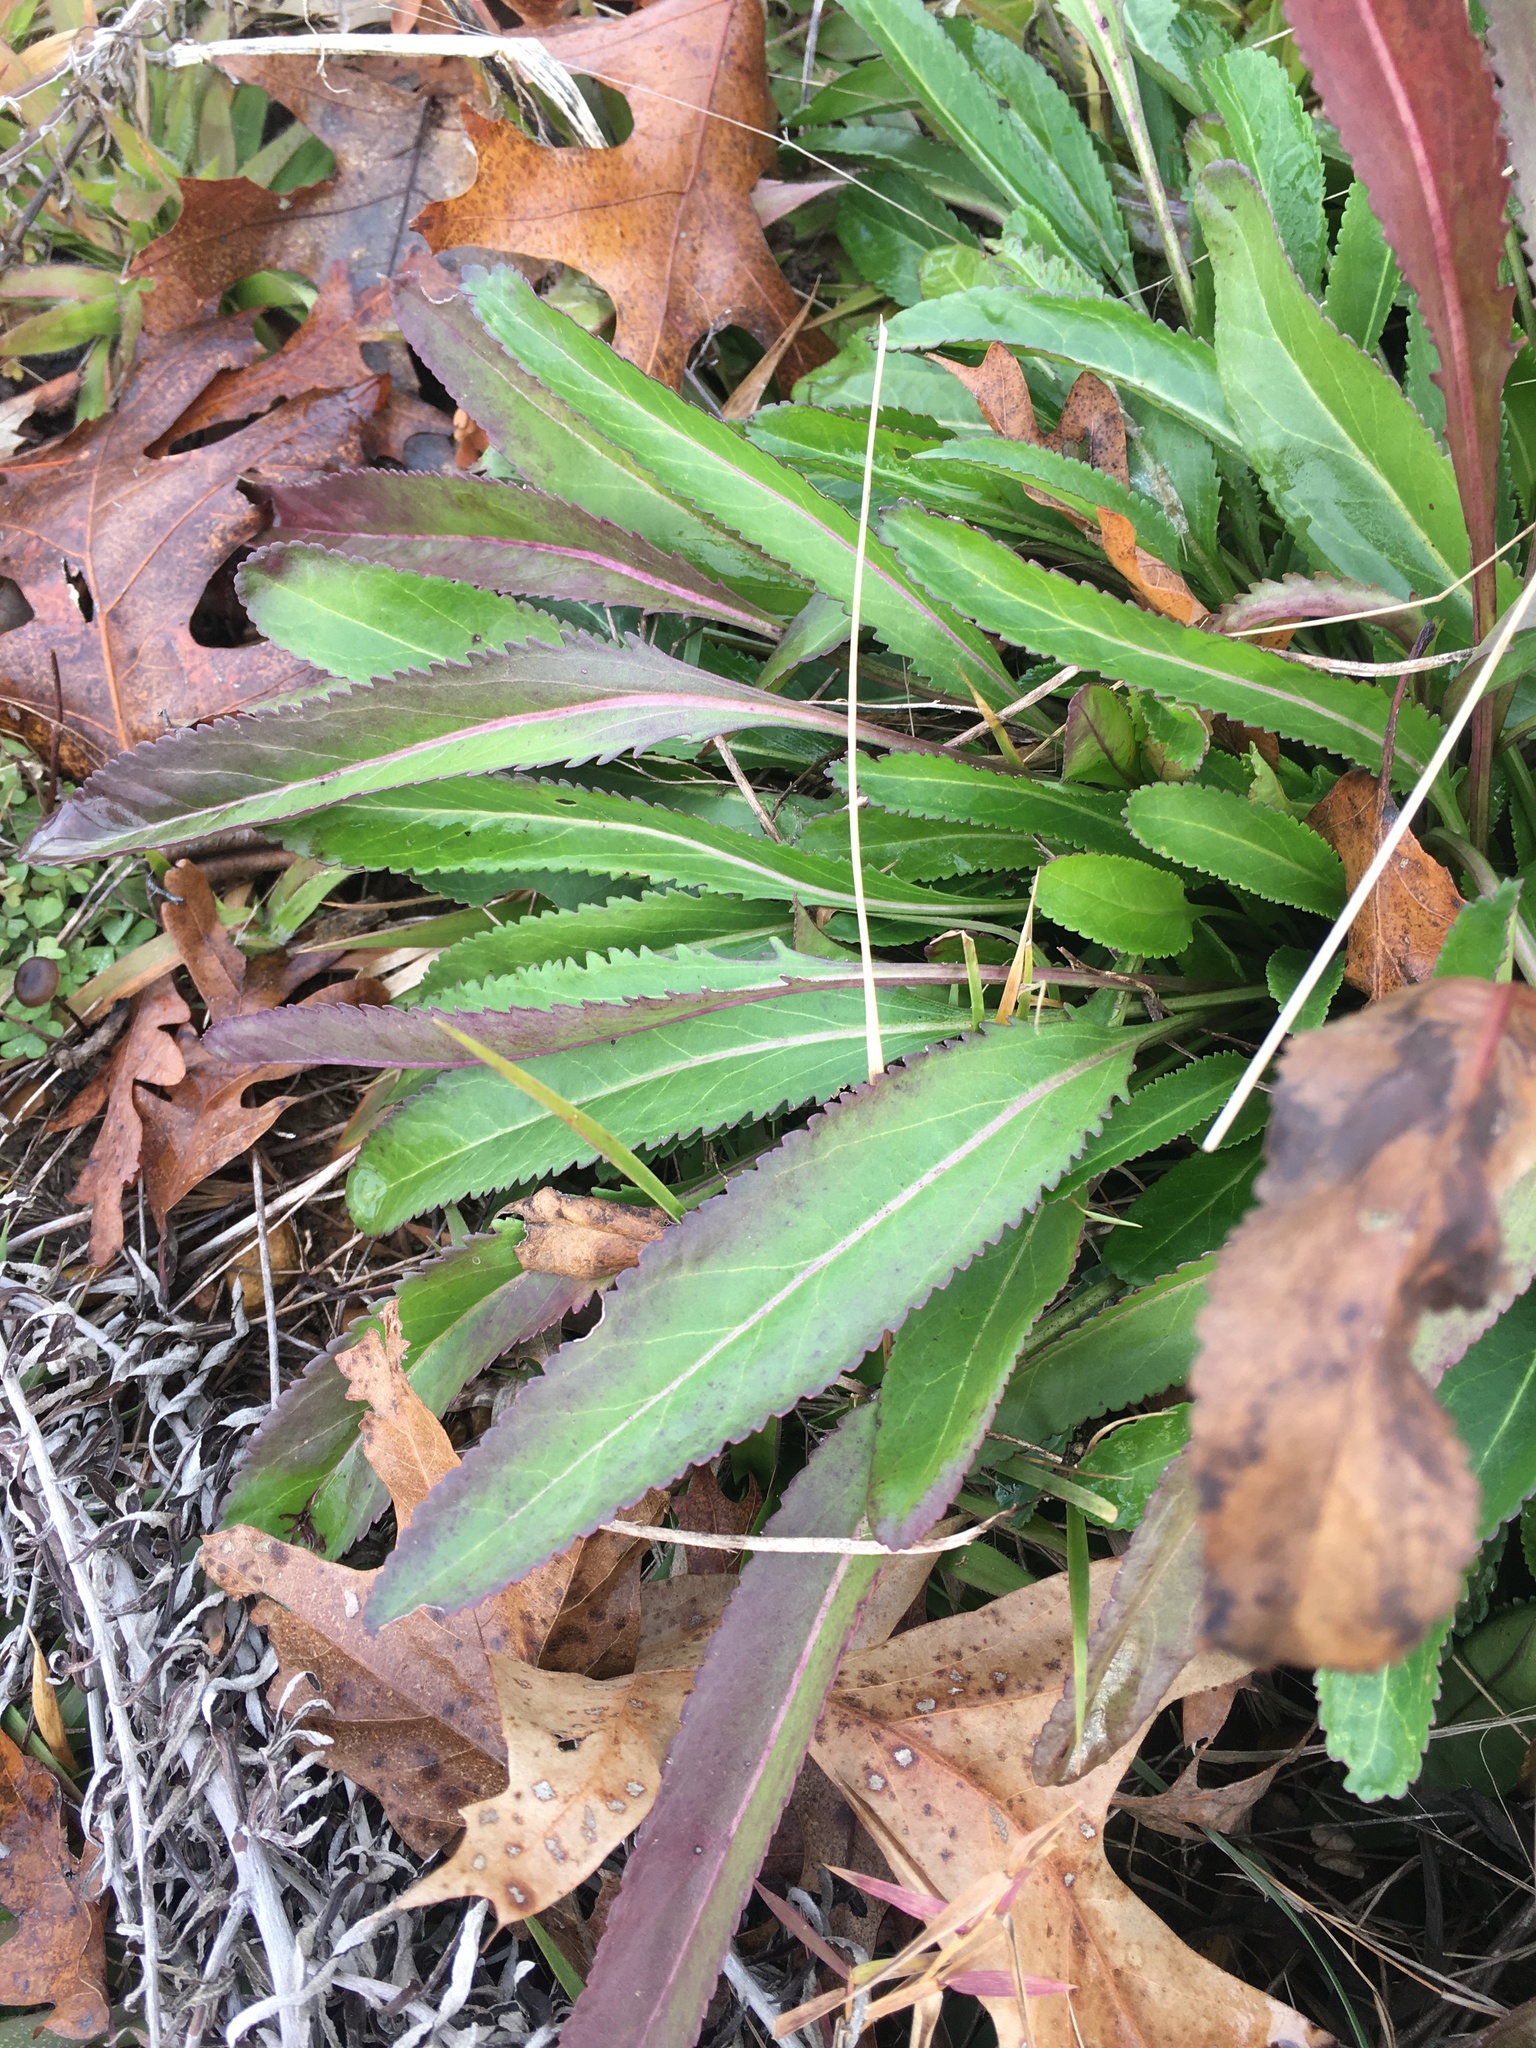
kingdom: Plantae
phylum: Tracheophyta
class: Magnoliopsida
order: Asterales
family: Asteraceae
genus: Packera
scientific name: Packera anonyma
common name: Small ragwort
